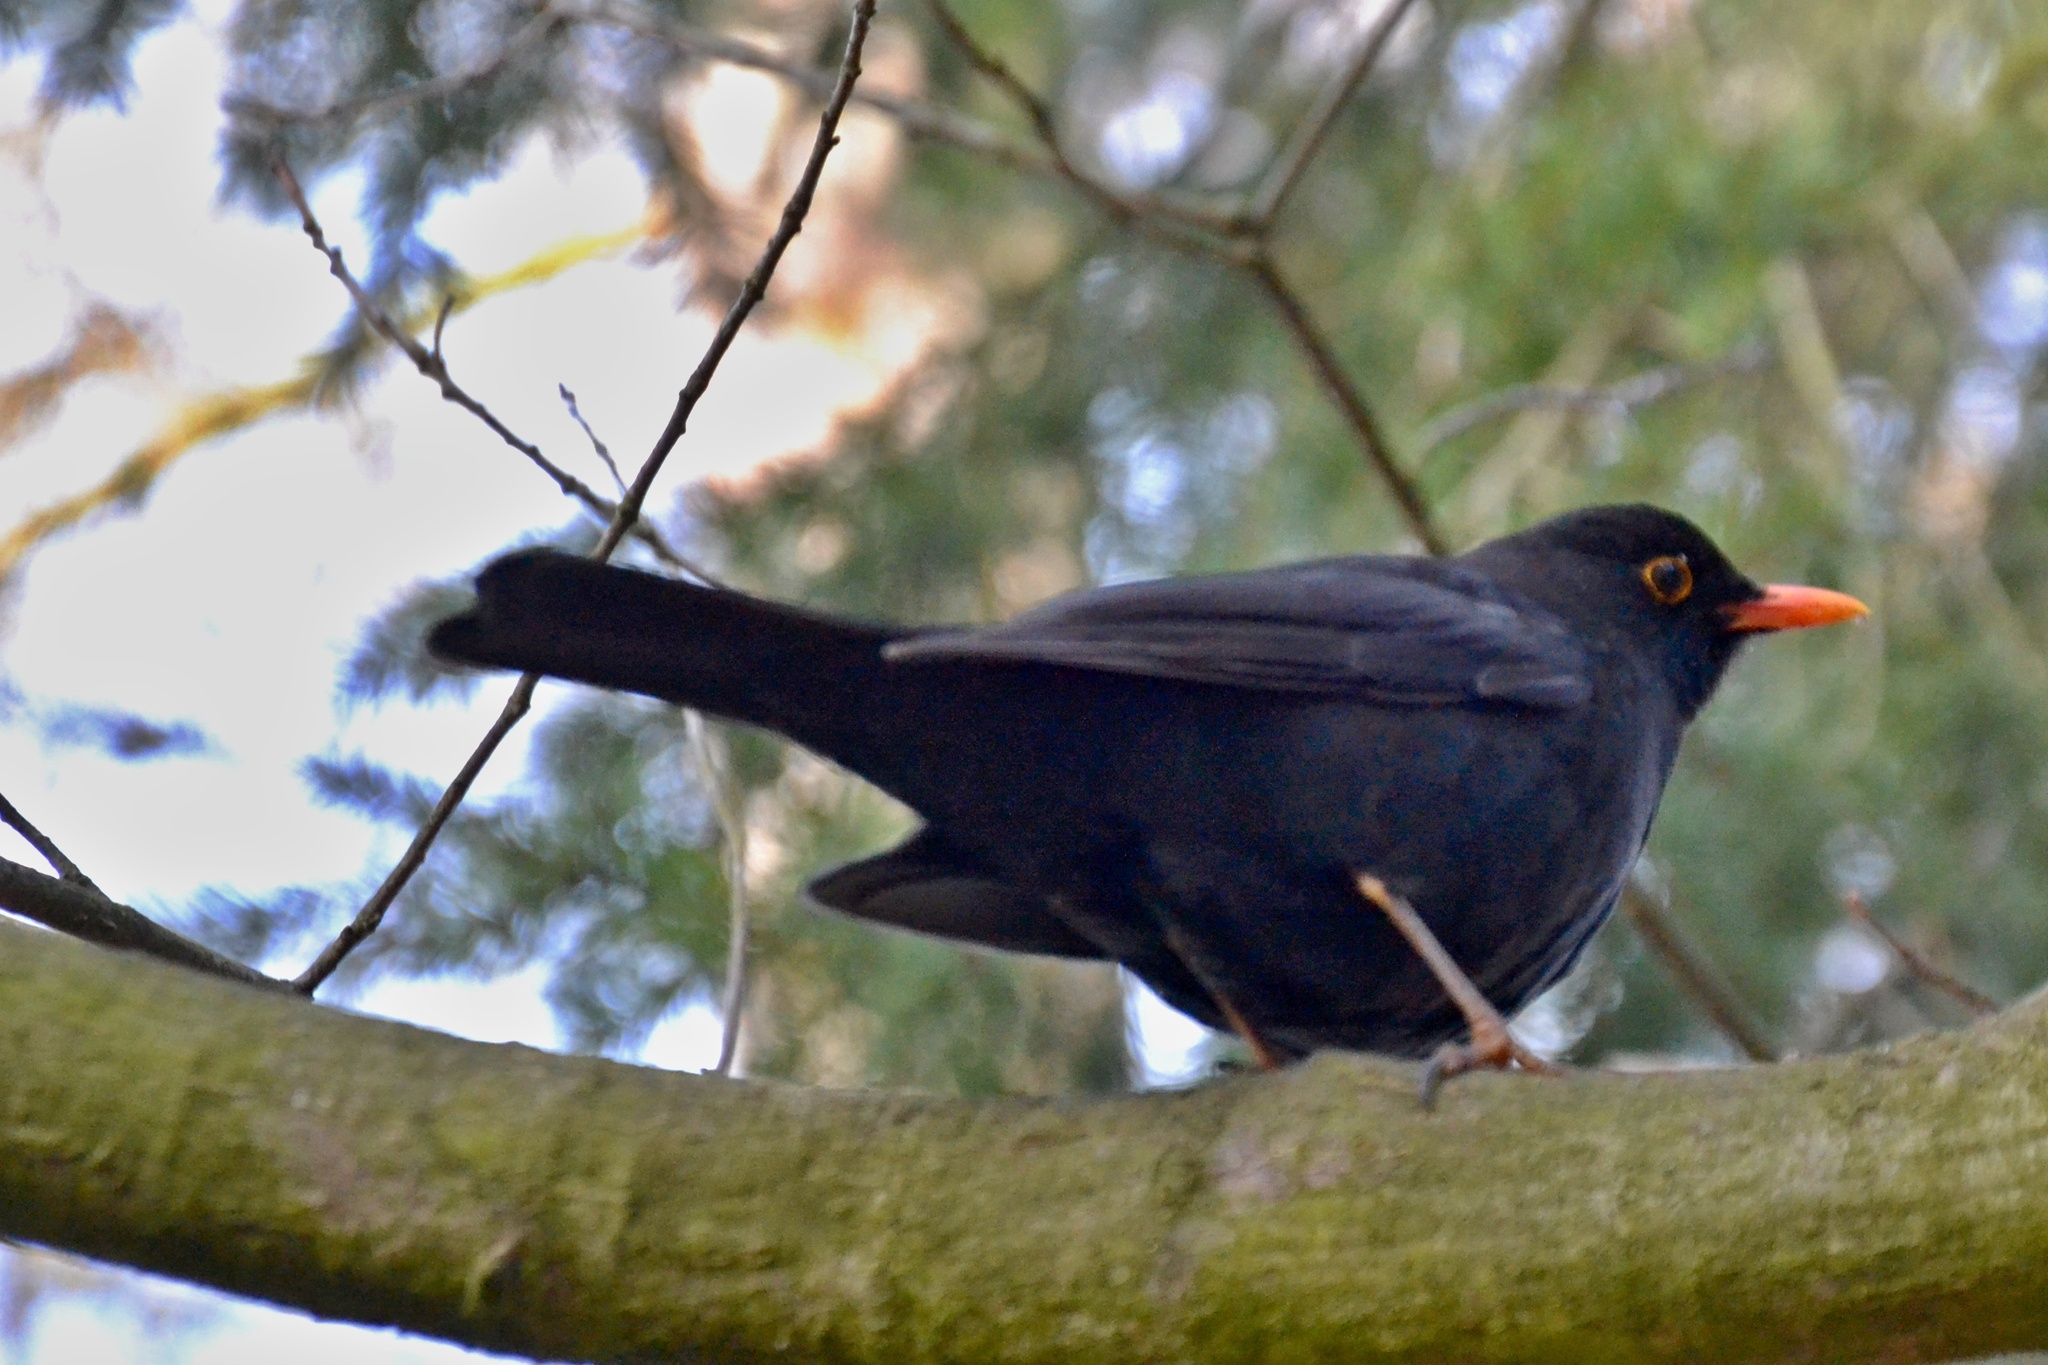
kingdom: Animalia
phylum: Chordata
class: Aves
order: Passeriformes
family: Turdidae
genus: Turdus
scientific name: Turdus merula
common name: Common blackbird
